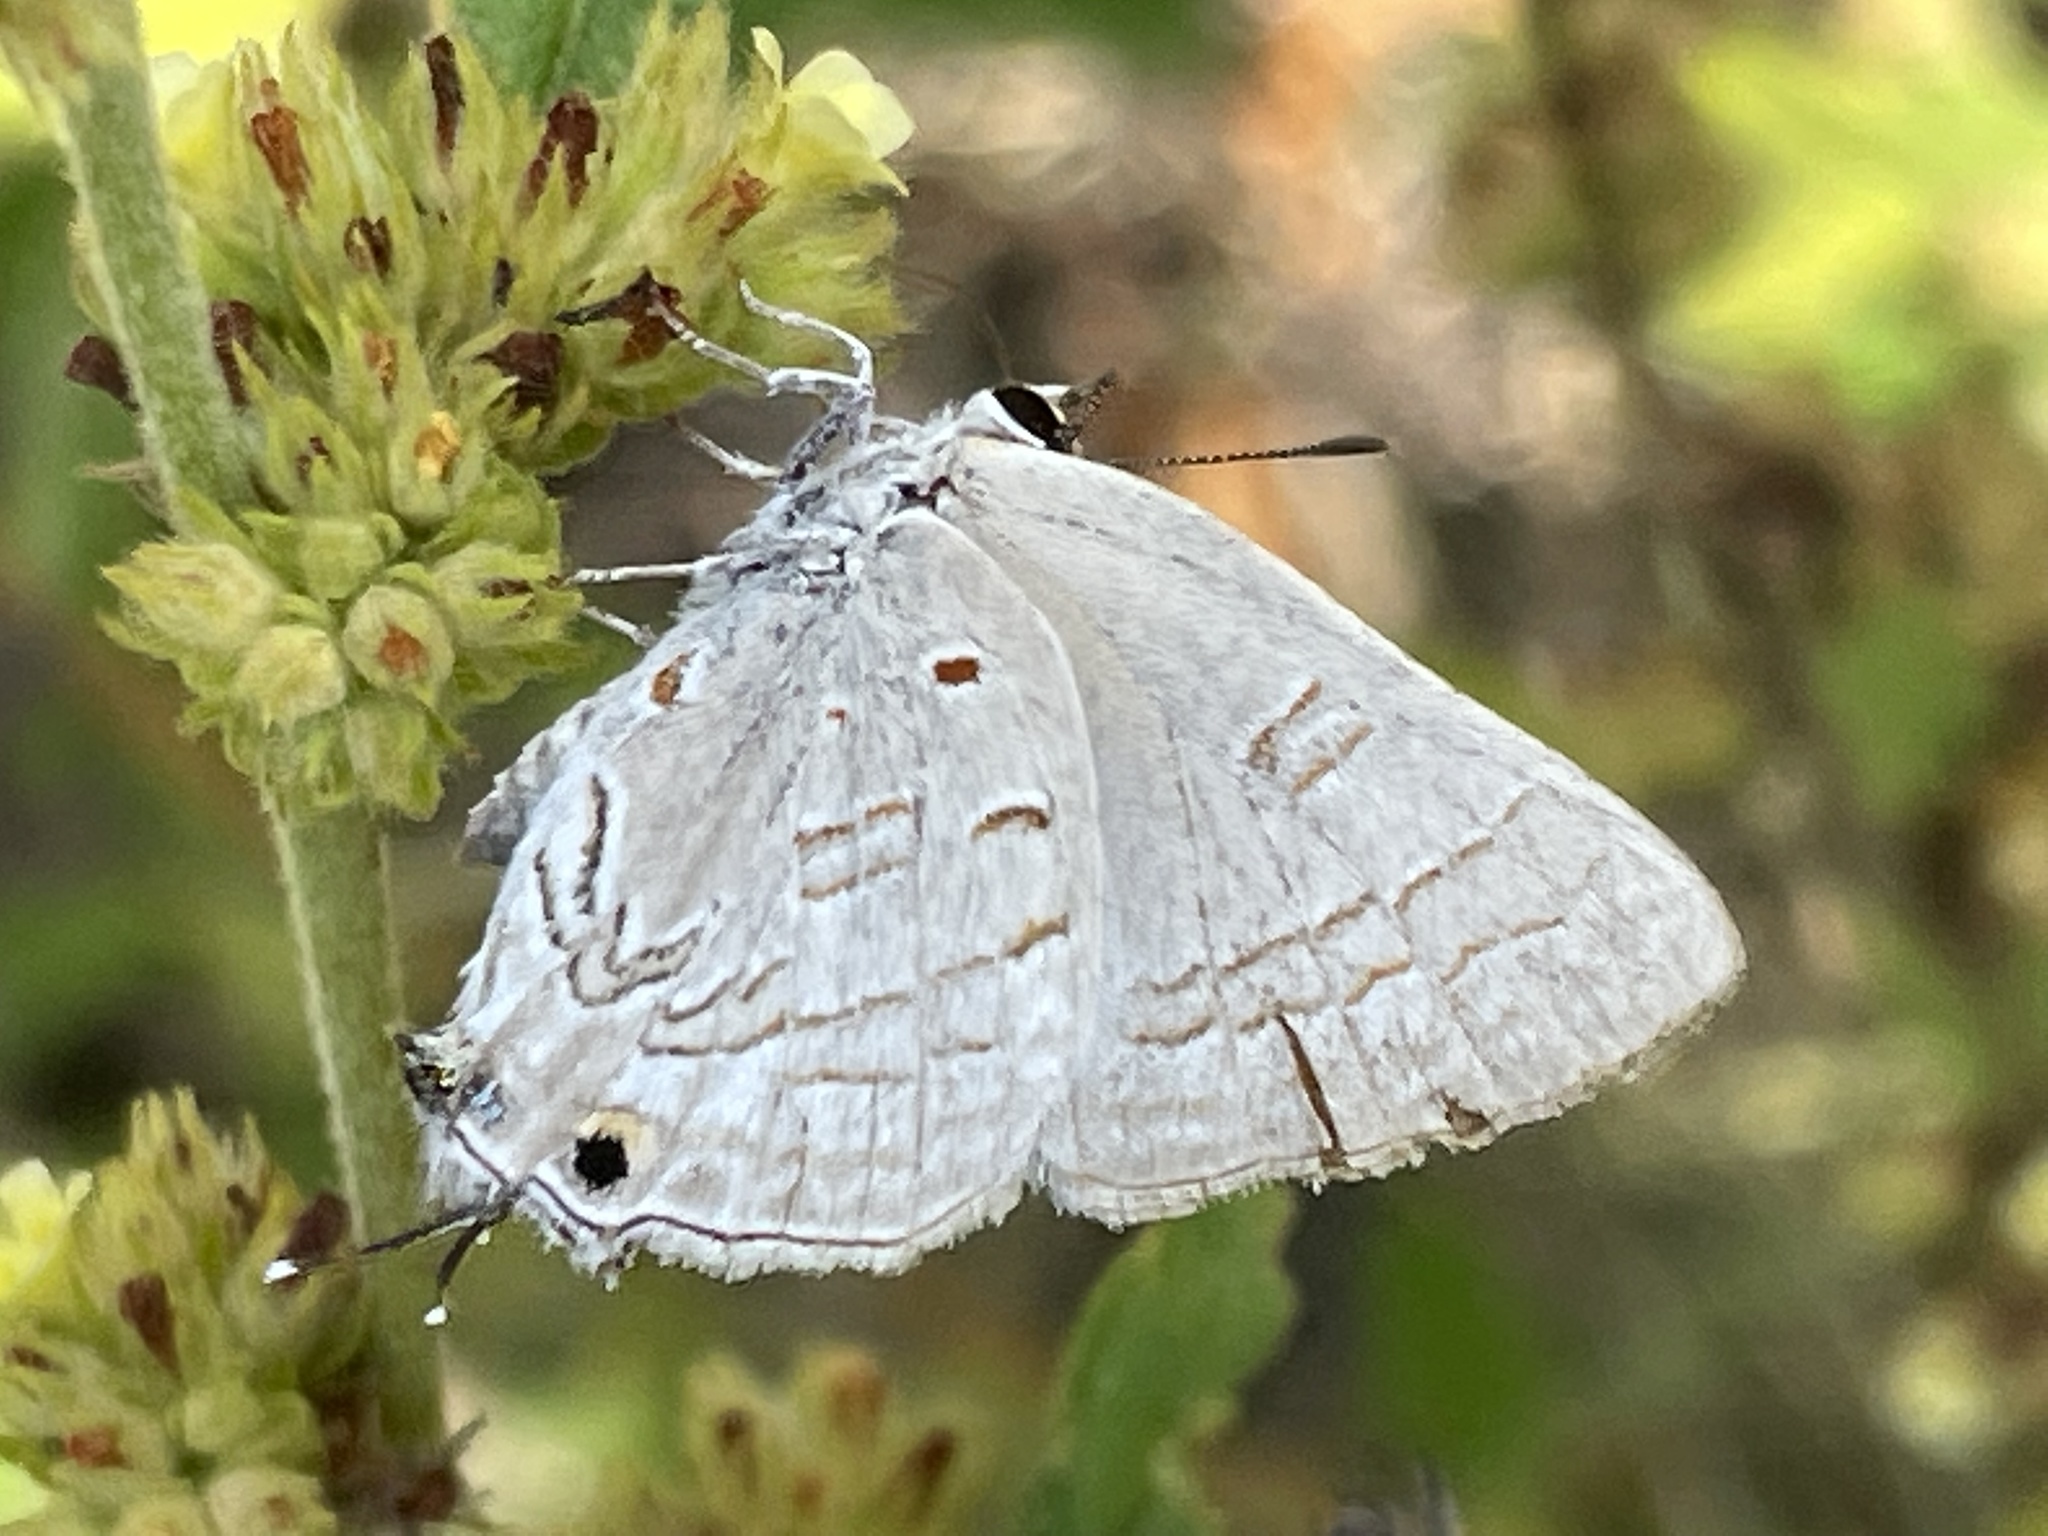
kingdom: Animalia
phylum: Arthropoda
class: Insecta
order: Lepidoptera
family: Lycaenidae
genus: Deudorix
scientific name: Deudorix antalus
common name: Brown playboy
